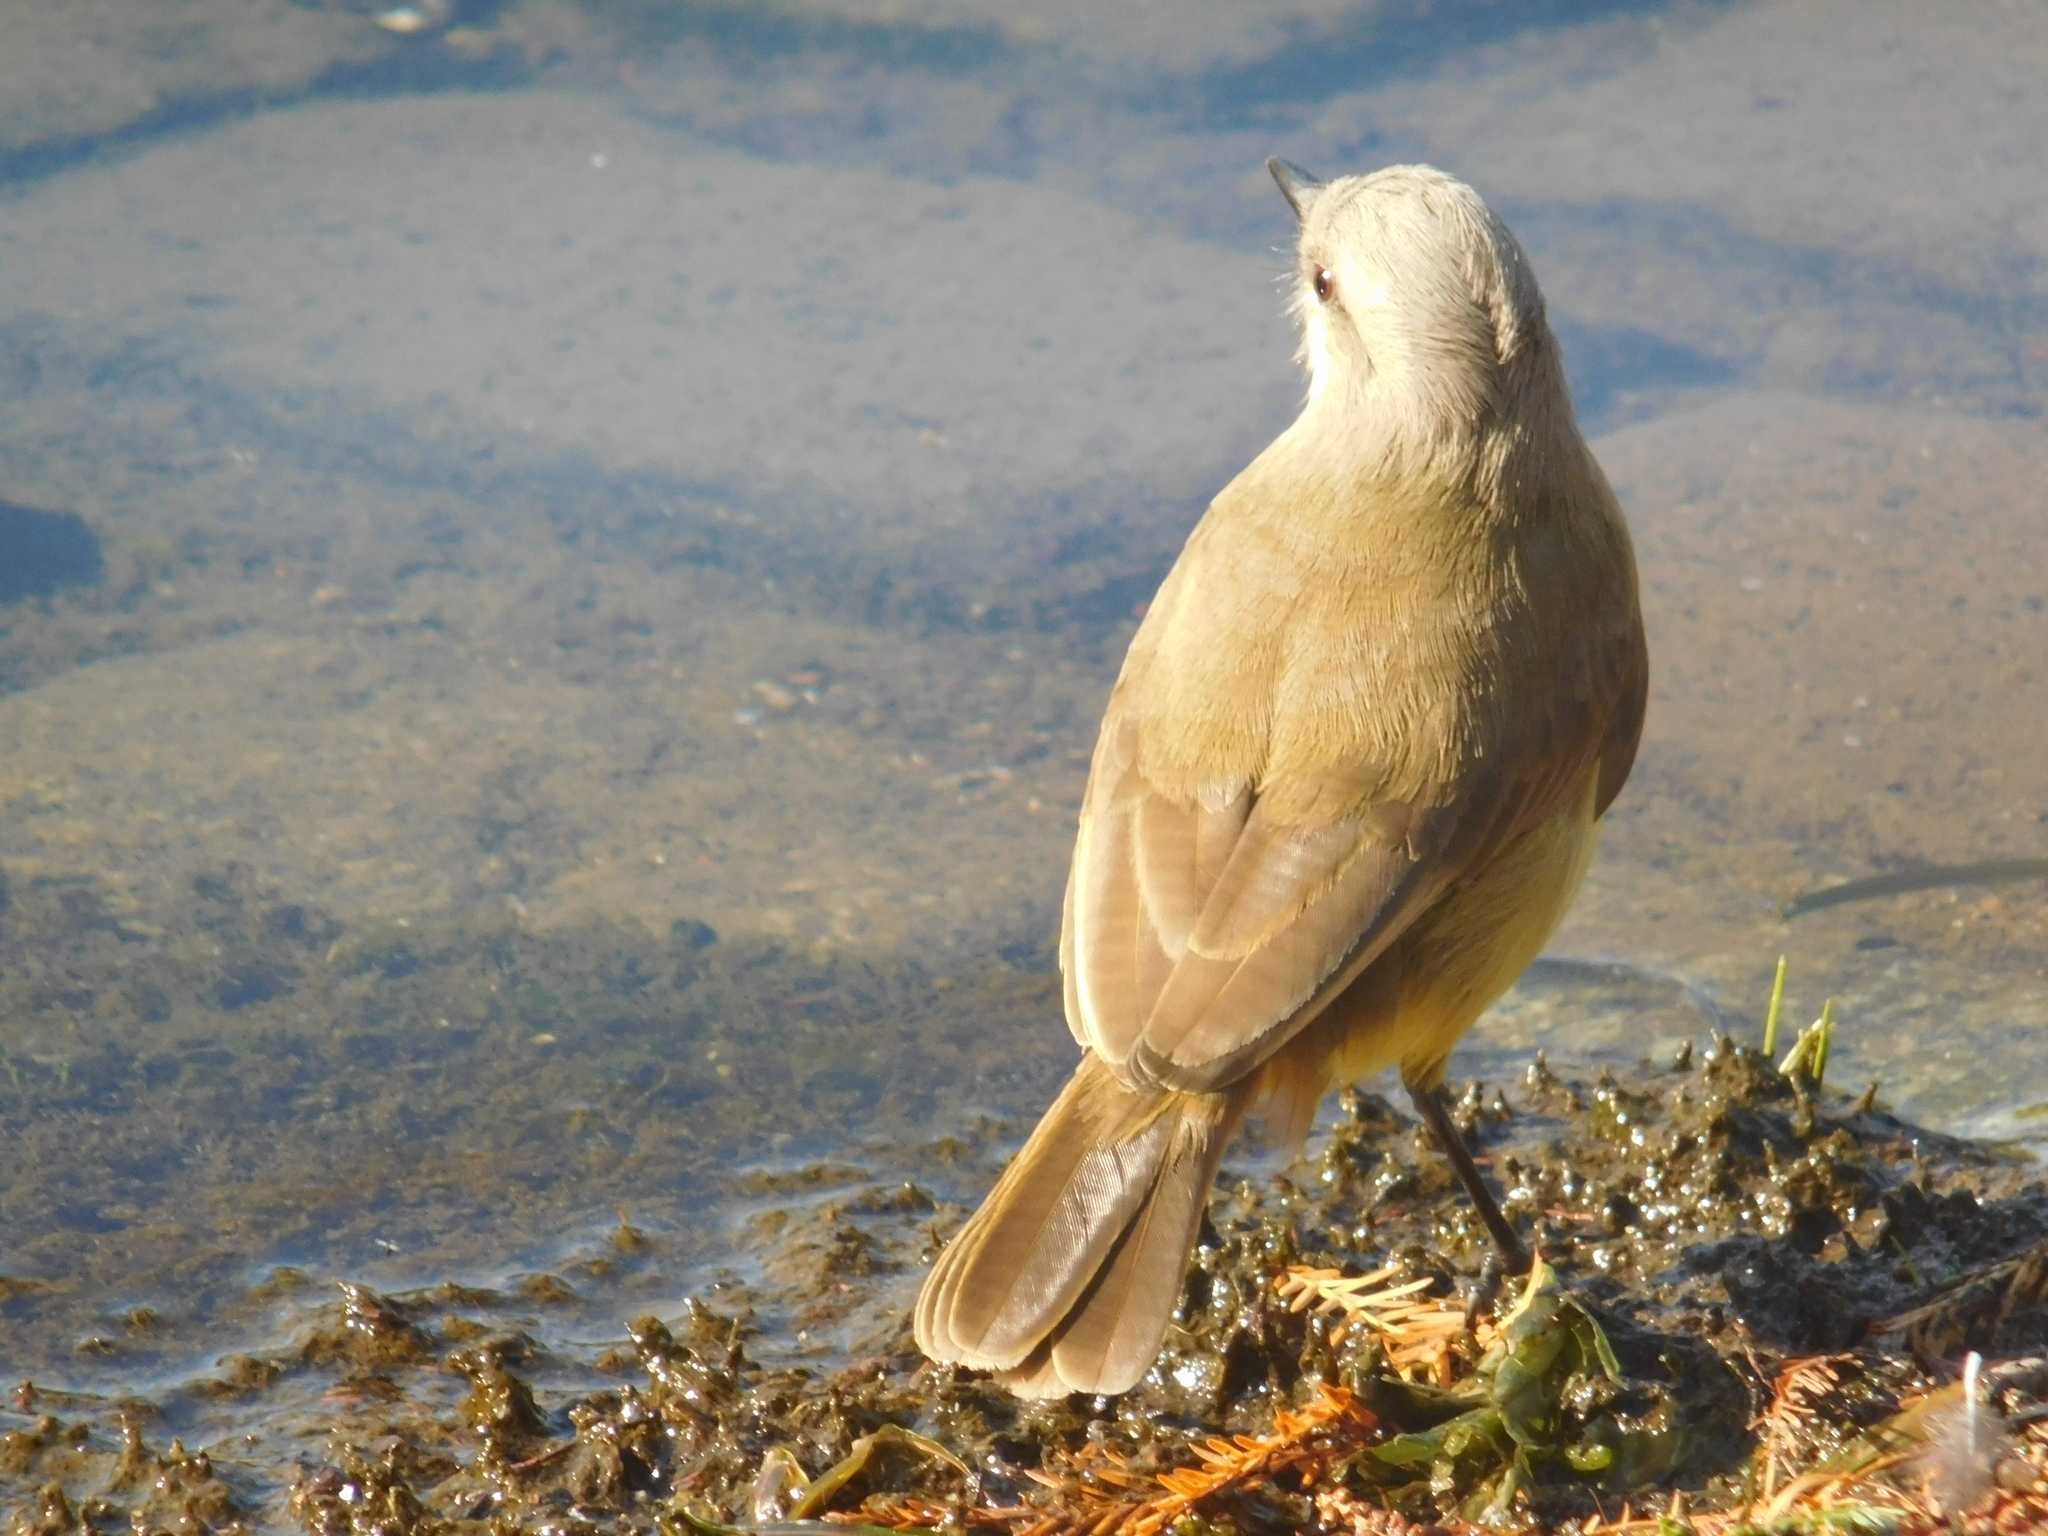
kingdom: Animalia
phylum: Chordata
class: Aves
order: Passeriformes
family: Tyrannidae
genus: Machetornis
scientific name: Machetornis rixosa
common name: Cattle tyrant
